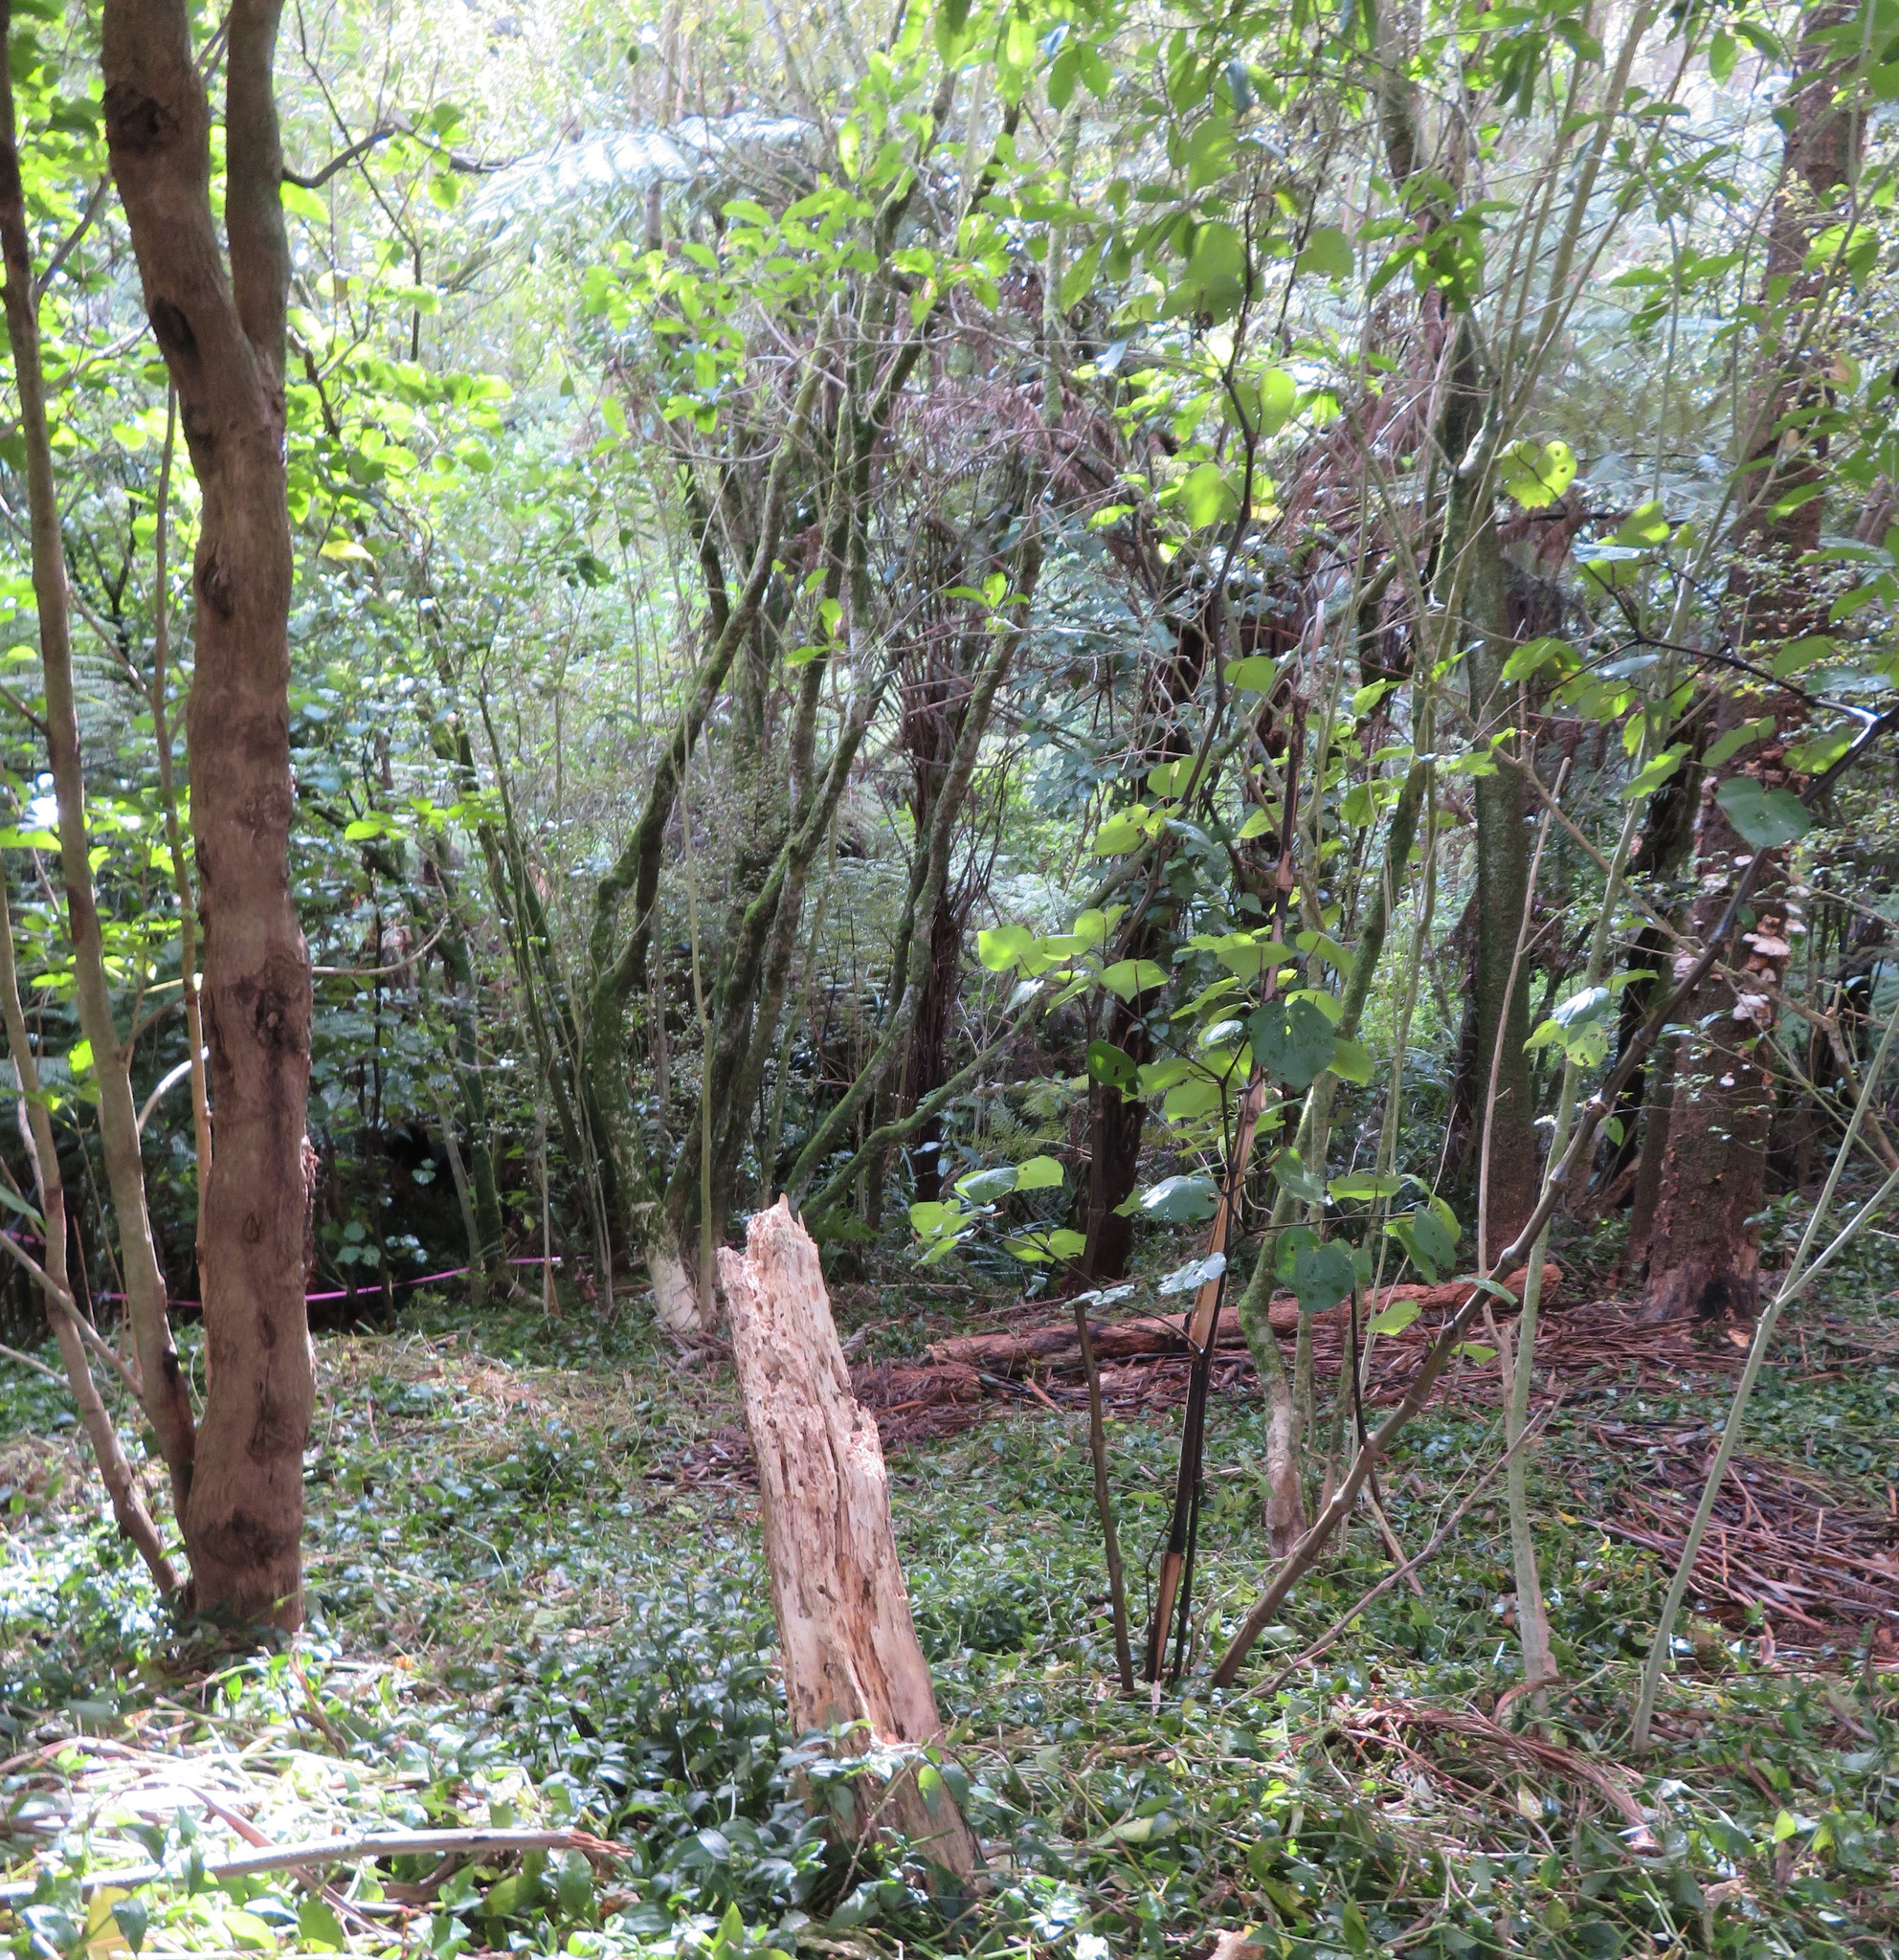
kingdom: Plantae
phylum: Tracheophyta
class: Magnoliopsida
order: Lamiales
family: Lamiaceae
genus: Vitex
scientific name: Vitex lucens
